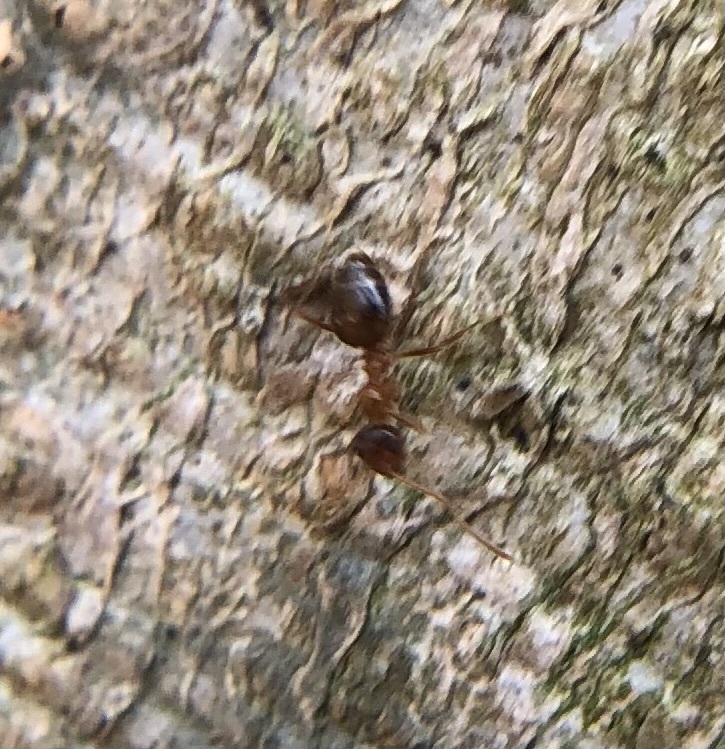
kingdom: Animalia
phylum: Arthropoda
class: Insecta
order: Hymenoptera
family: Formicidae
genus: Prenolepis
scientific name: Prenolepis imparis
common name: Small honey ant
